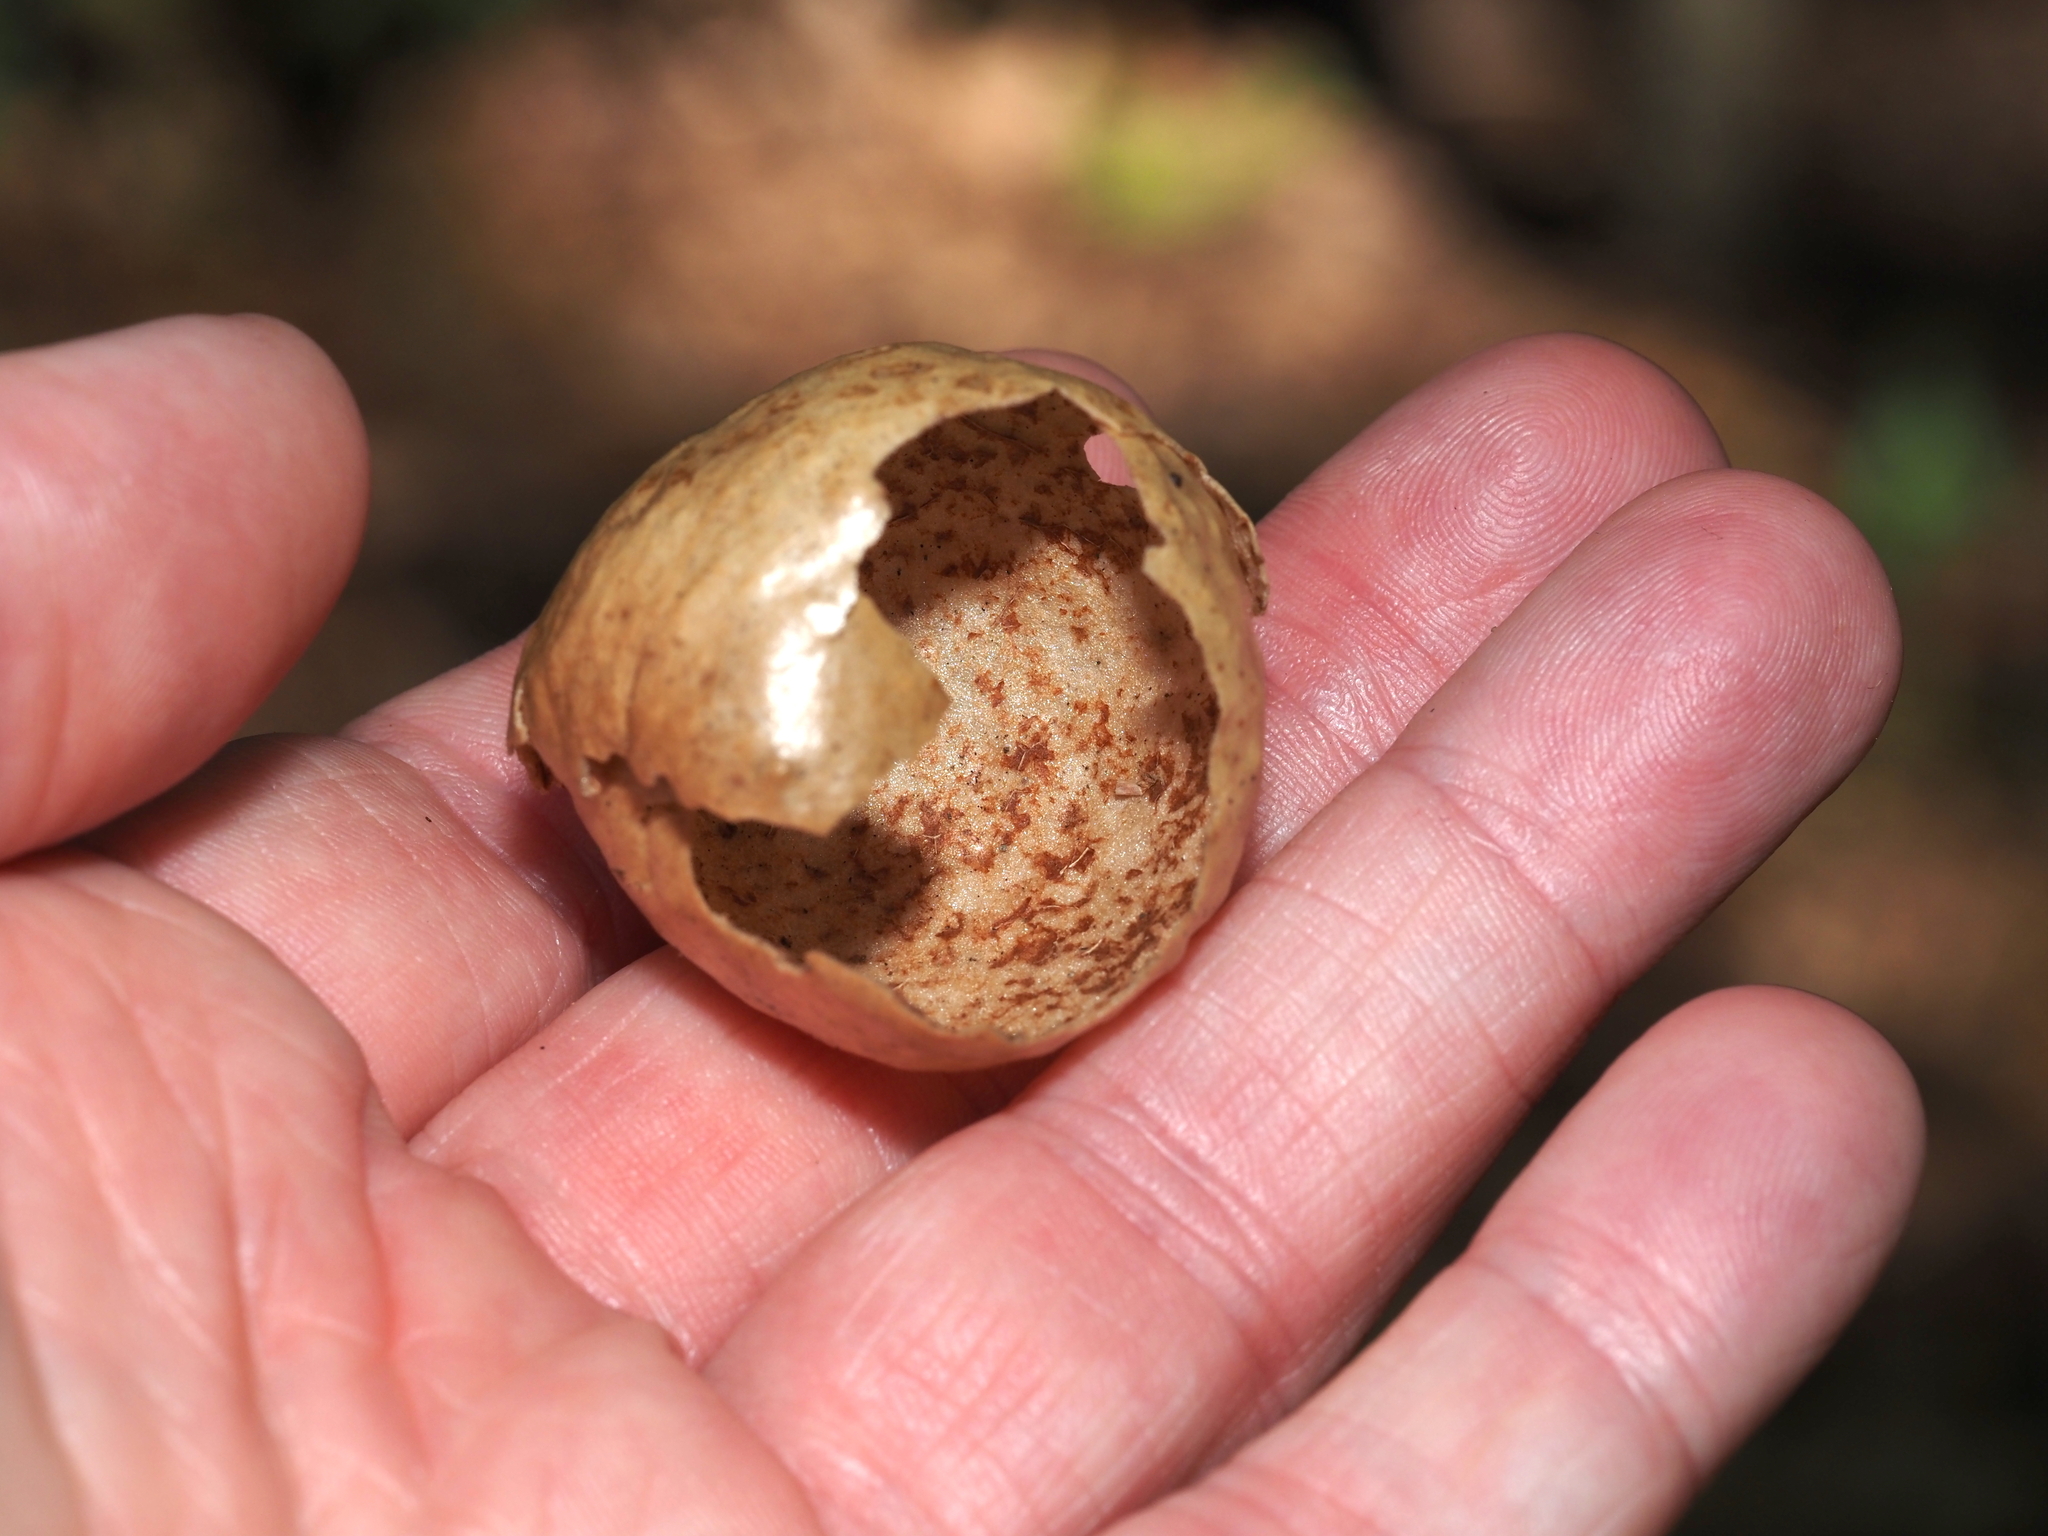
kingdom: Animalia
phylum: Arthropoda
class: Insecta
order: Hymenoptera
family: Cynipidae
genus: Amphibolips
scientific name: Amphibolips
